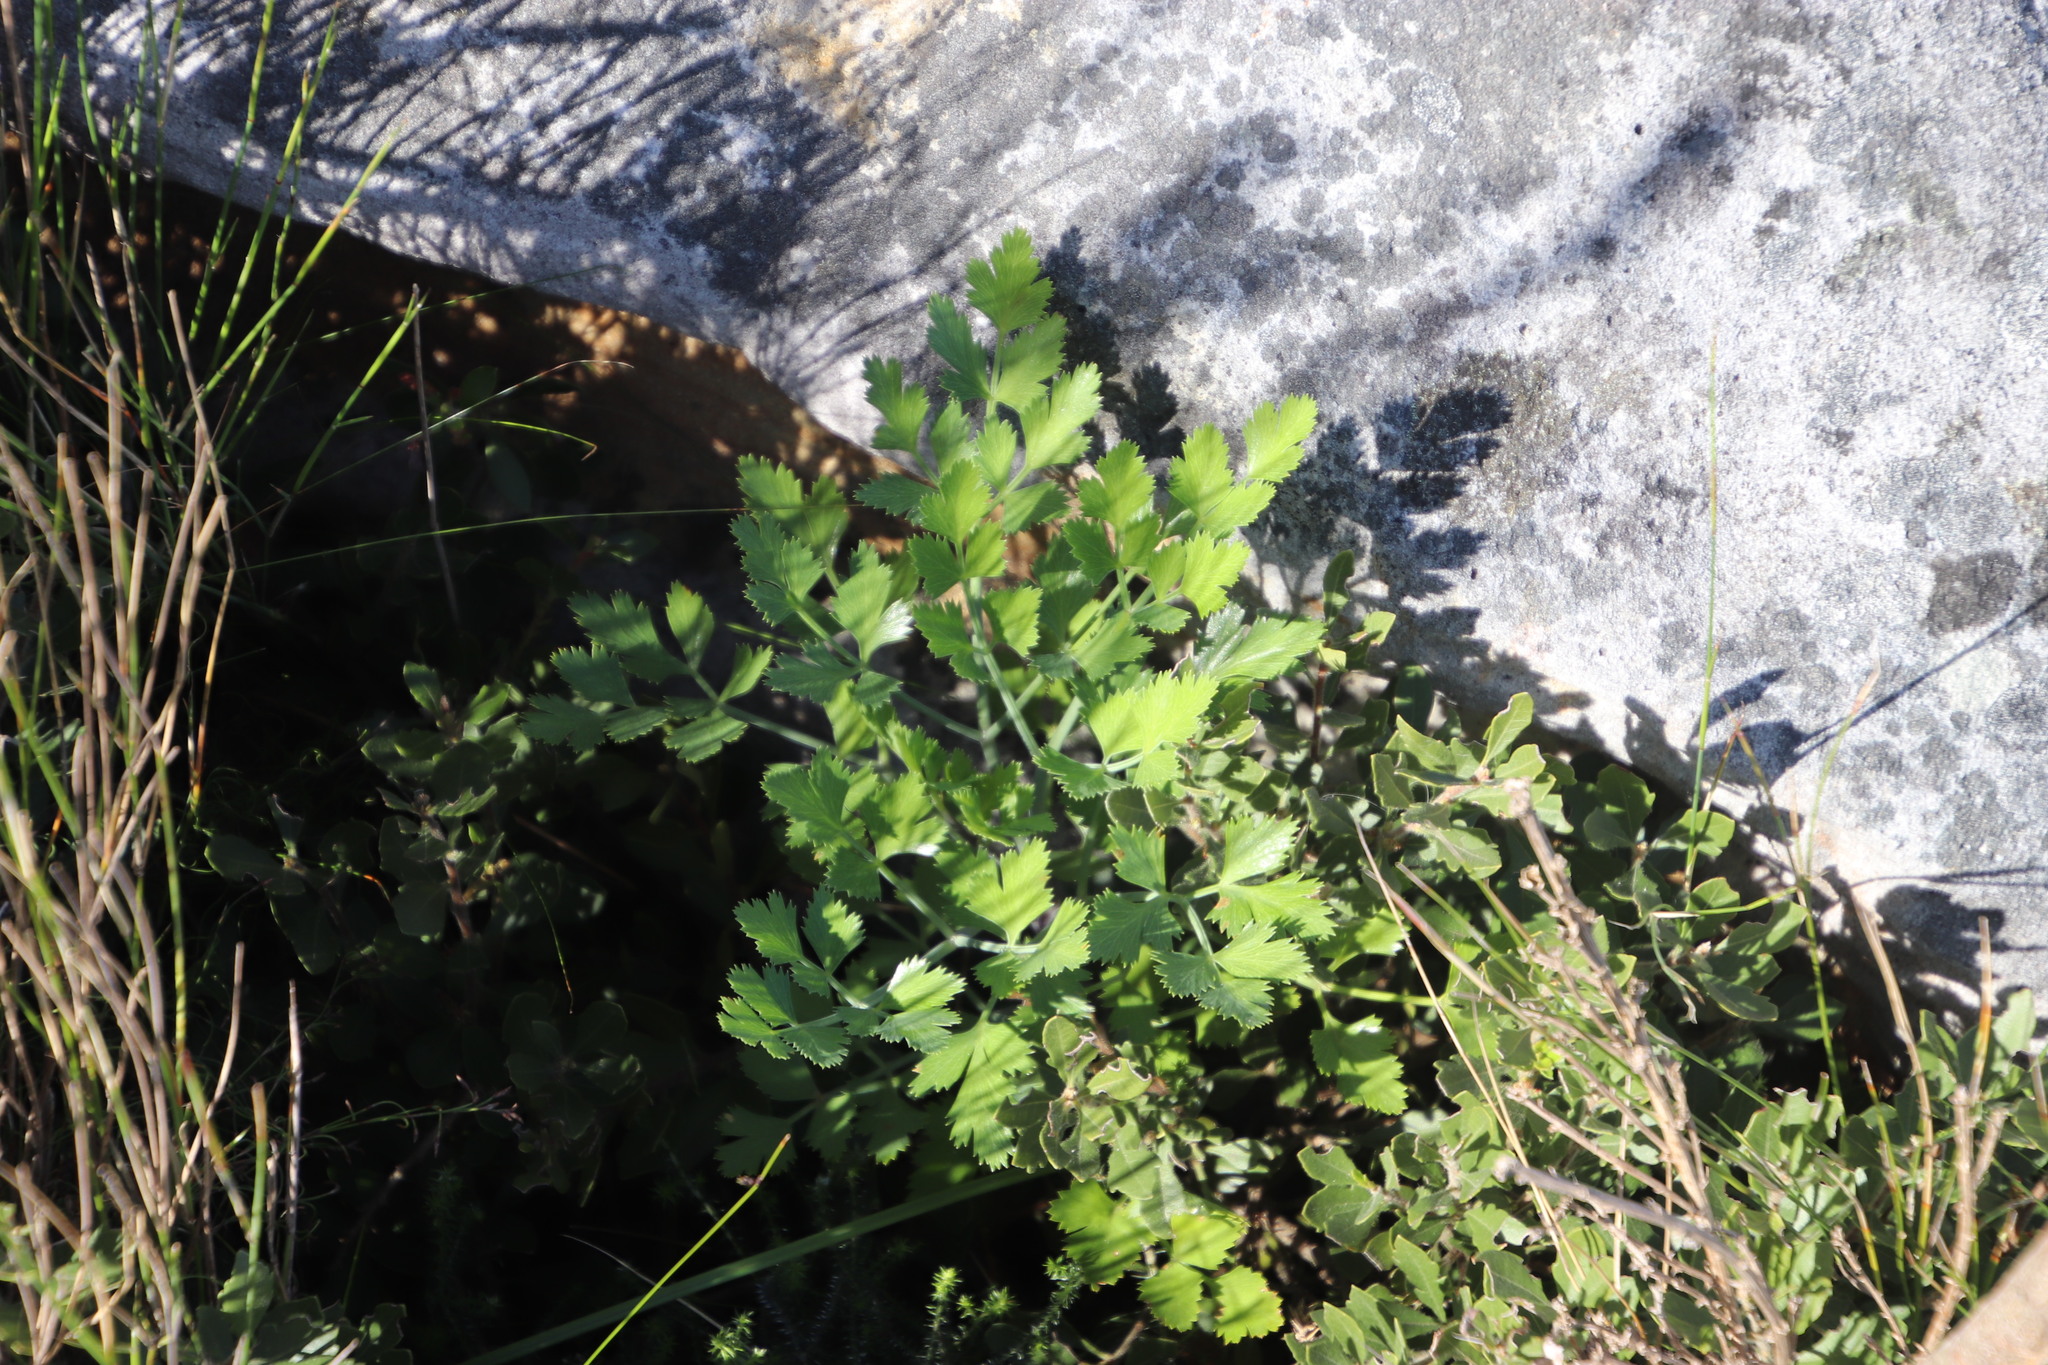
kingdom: Plantae
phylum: Tracheophyta
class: Magnoliopsida
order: Apiales
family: Apiaceae
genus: Notobubon
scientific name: Notobubon galbanum
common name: Blisterbush
